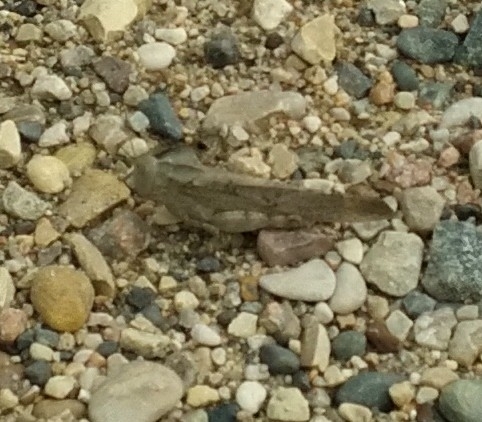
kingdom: Animalia
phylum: Arthropoda
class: Insecta
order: Orthoptera
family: Acrididae
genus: Dissosteira
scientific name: Dissosteira carolina
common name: Carolina grasshopper
